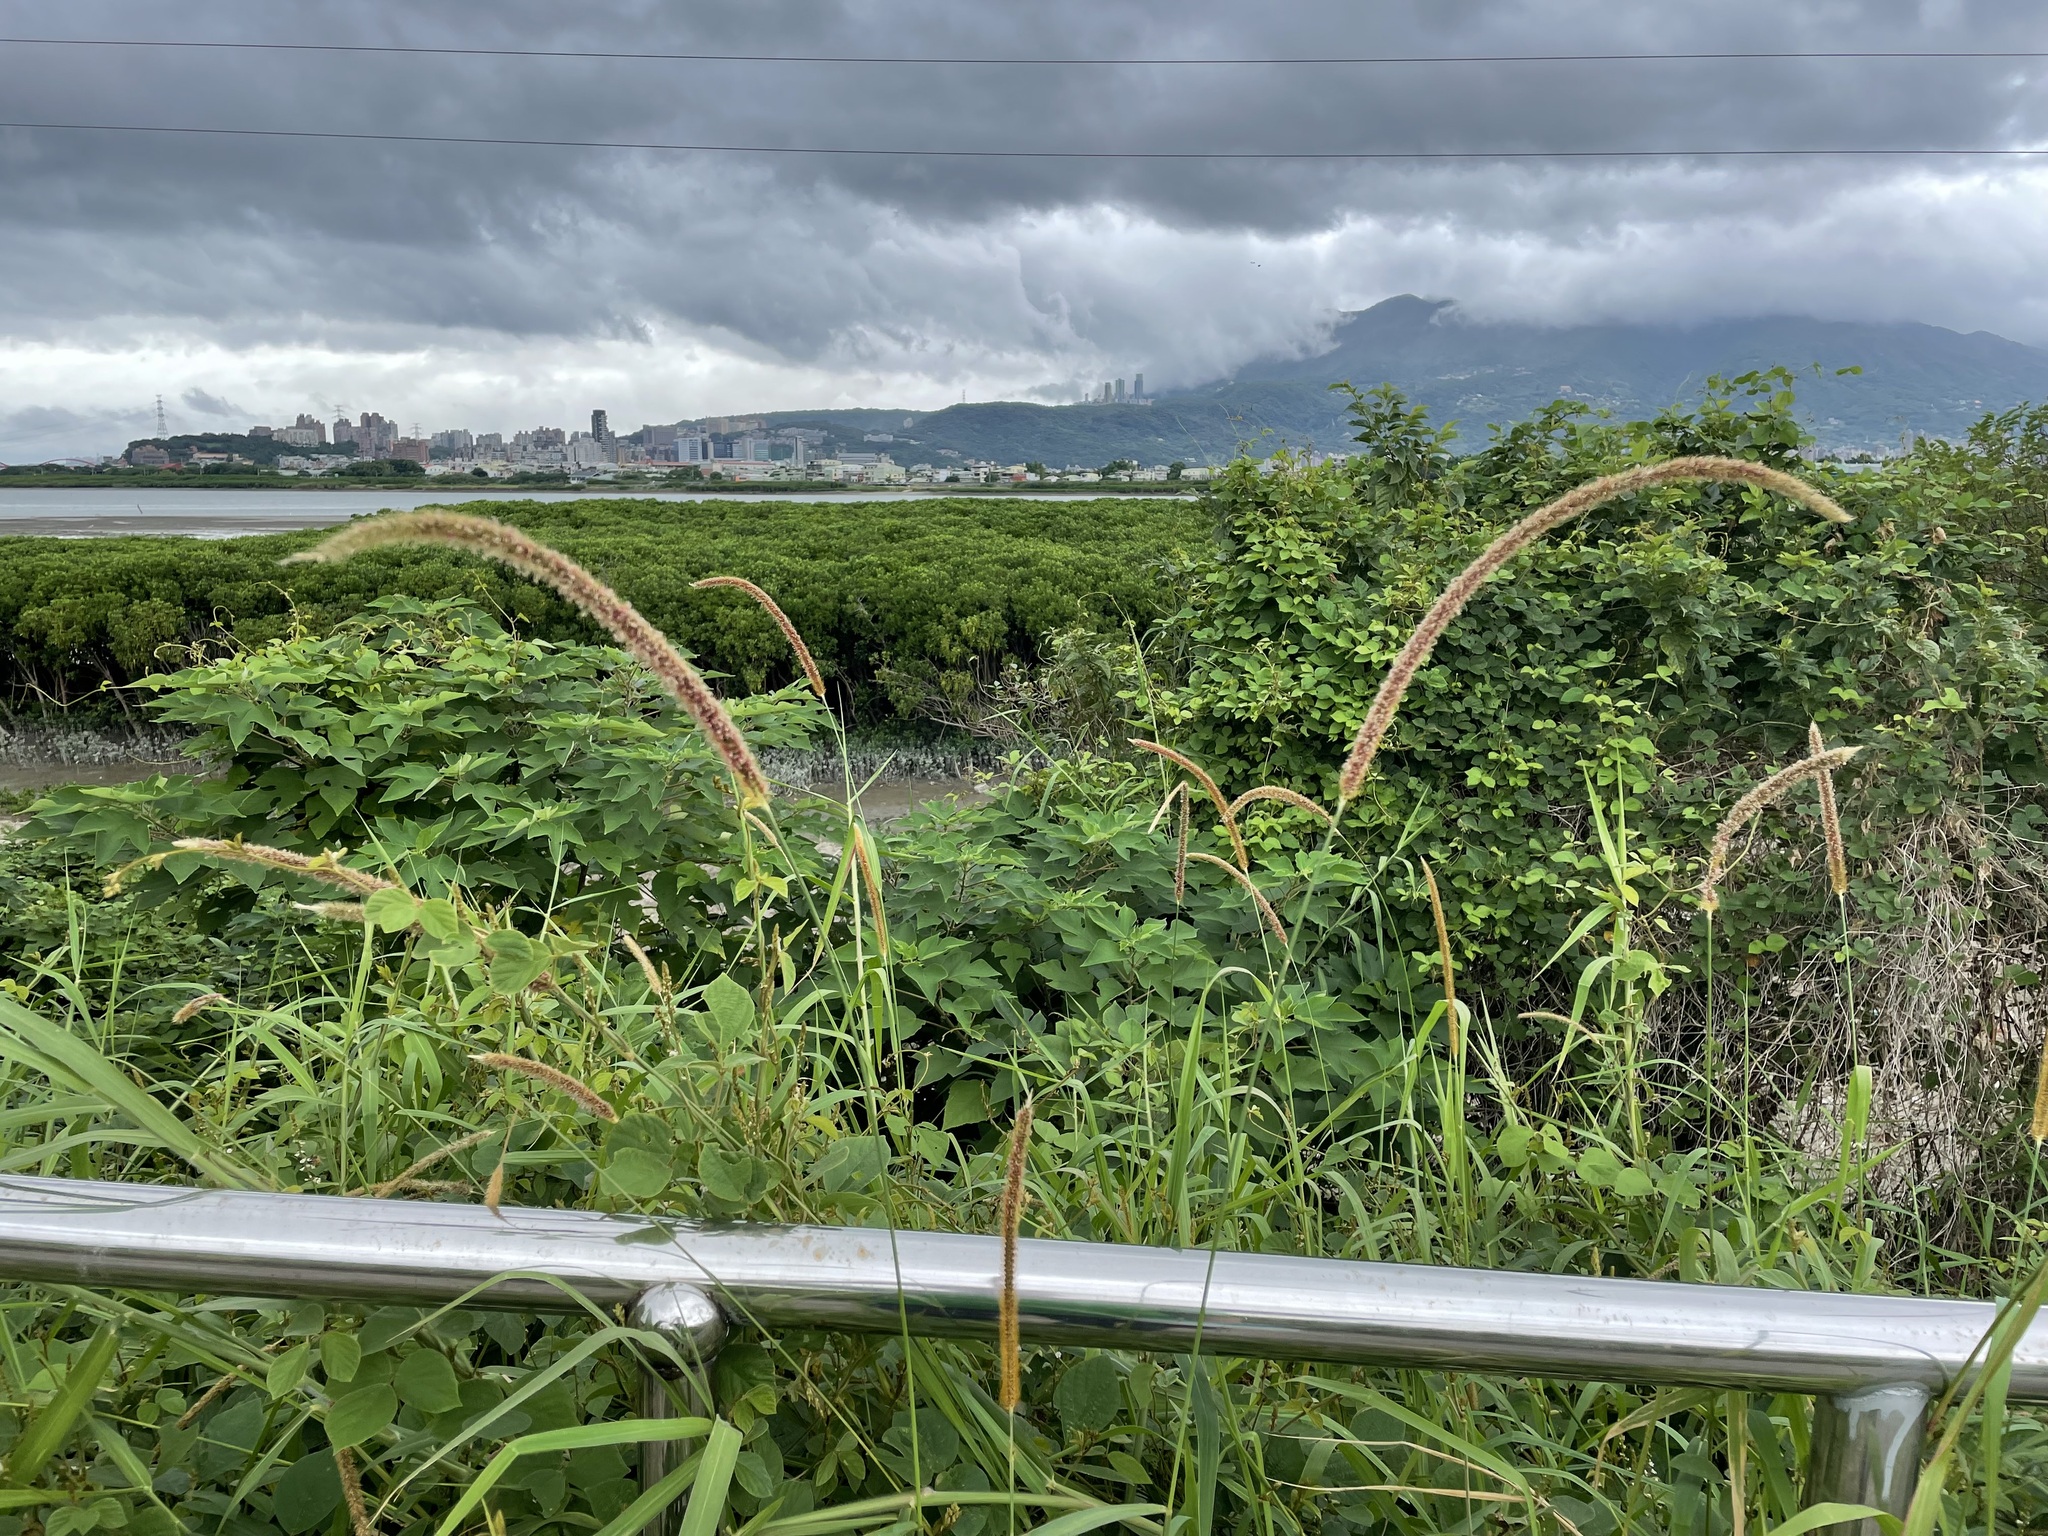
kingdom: Plantae
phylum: Tracheophyta
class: Liliopsida
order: Poales
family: Poaceae
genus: Cenchrus
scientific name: Cenchrus setosus
